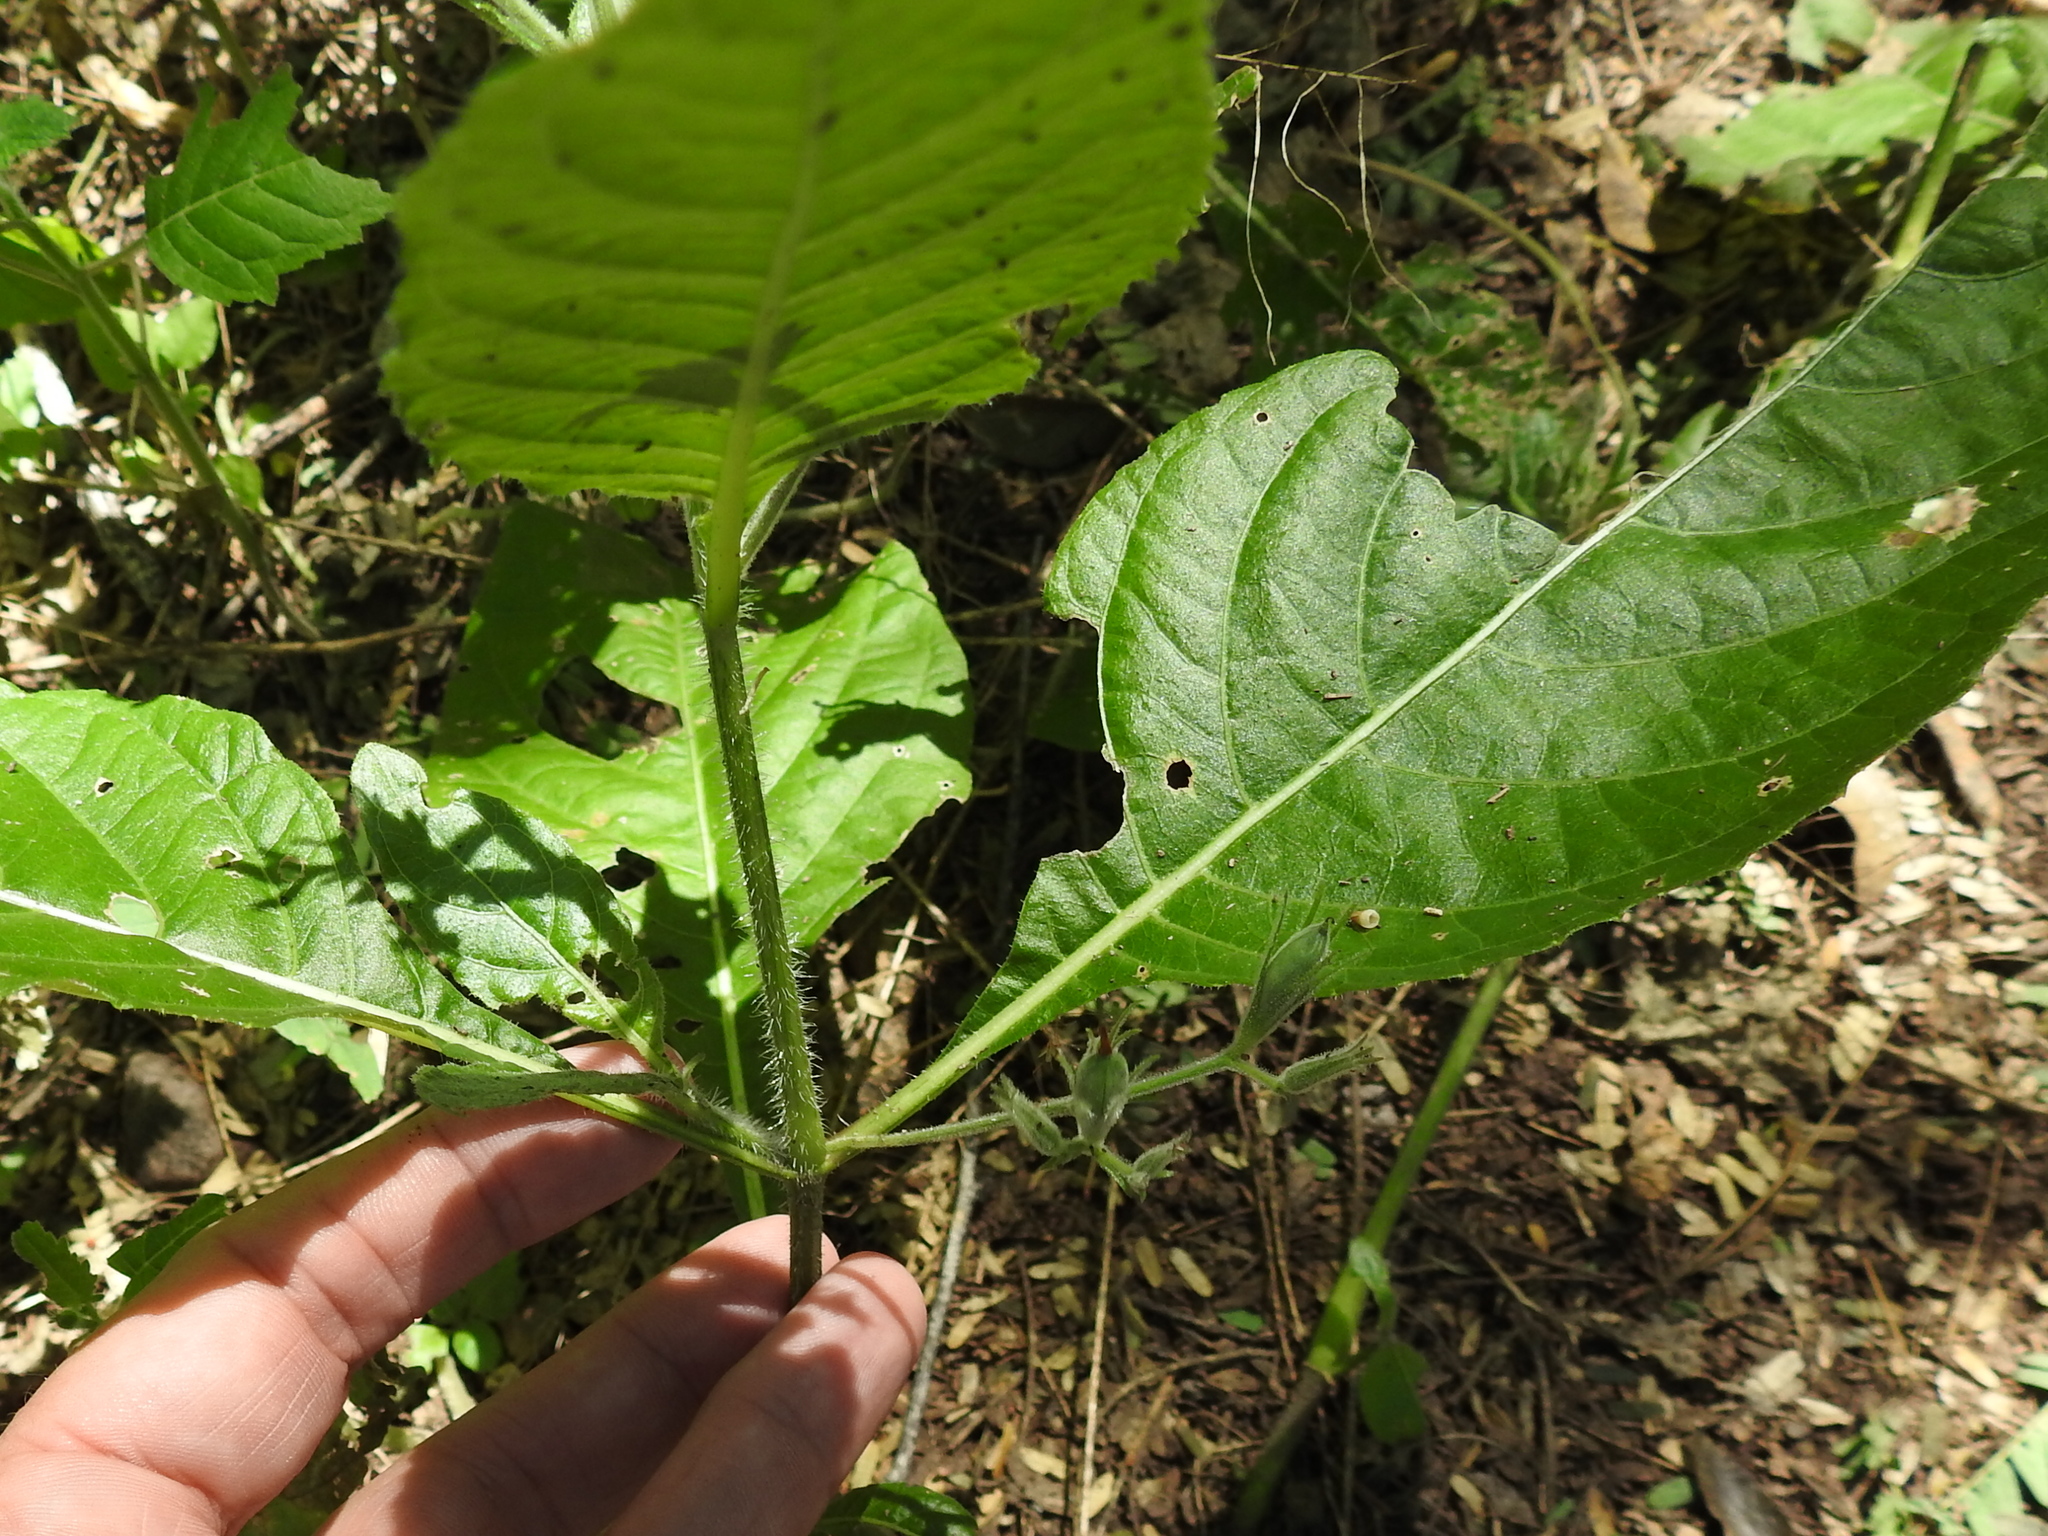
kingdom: Plantae
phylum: Tracheophyta
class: Magnoliopsida
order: Lamiales
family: Acanthaceae
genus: Ruellia
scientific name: Ruellia ciliatiflora
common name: Hairyflower wild petunia
